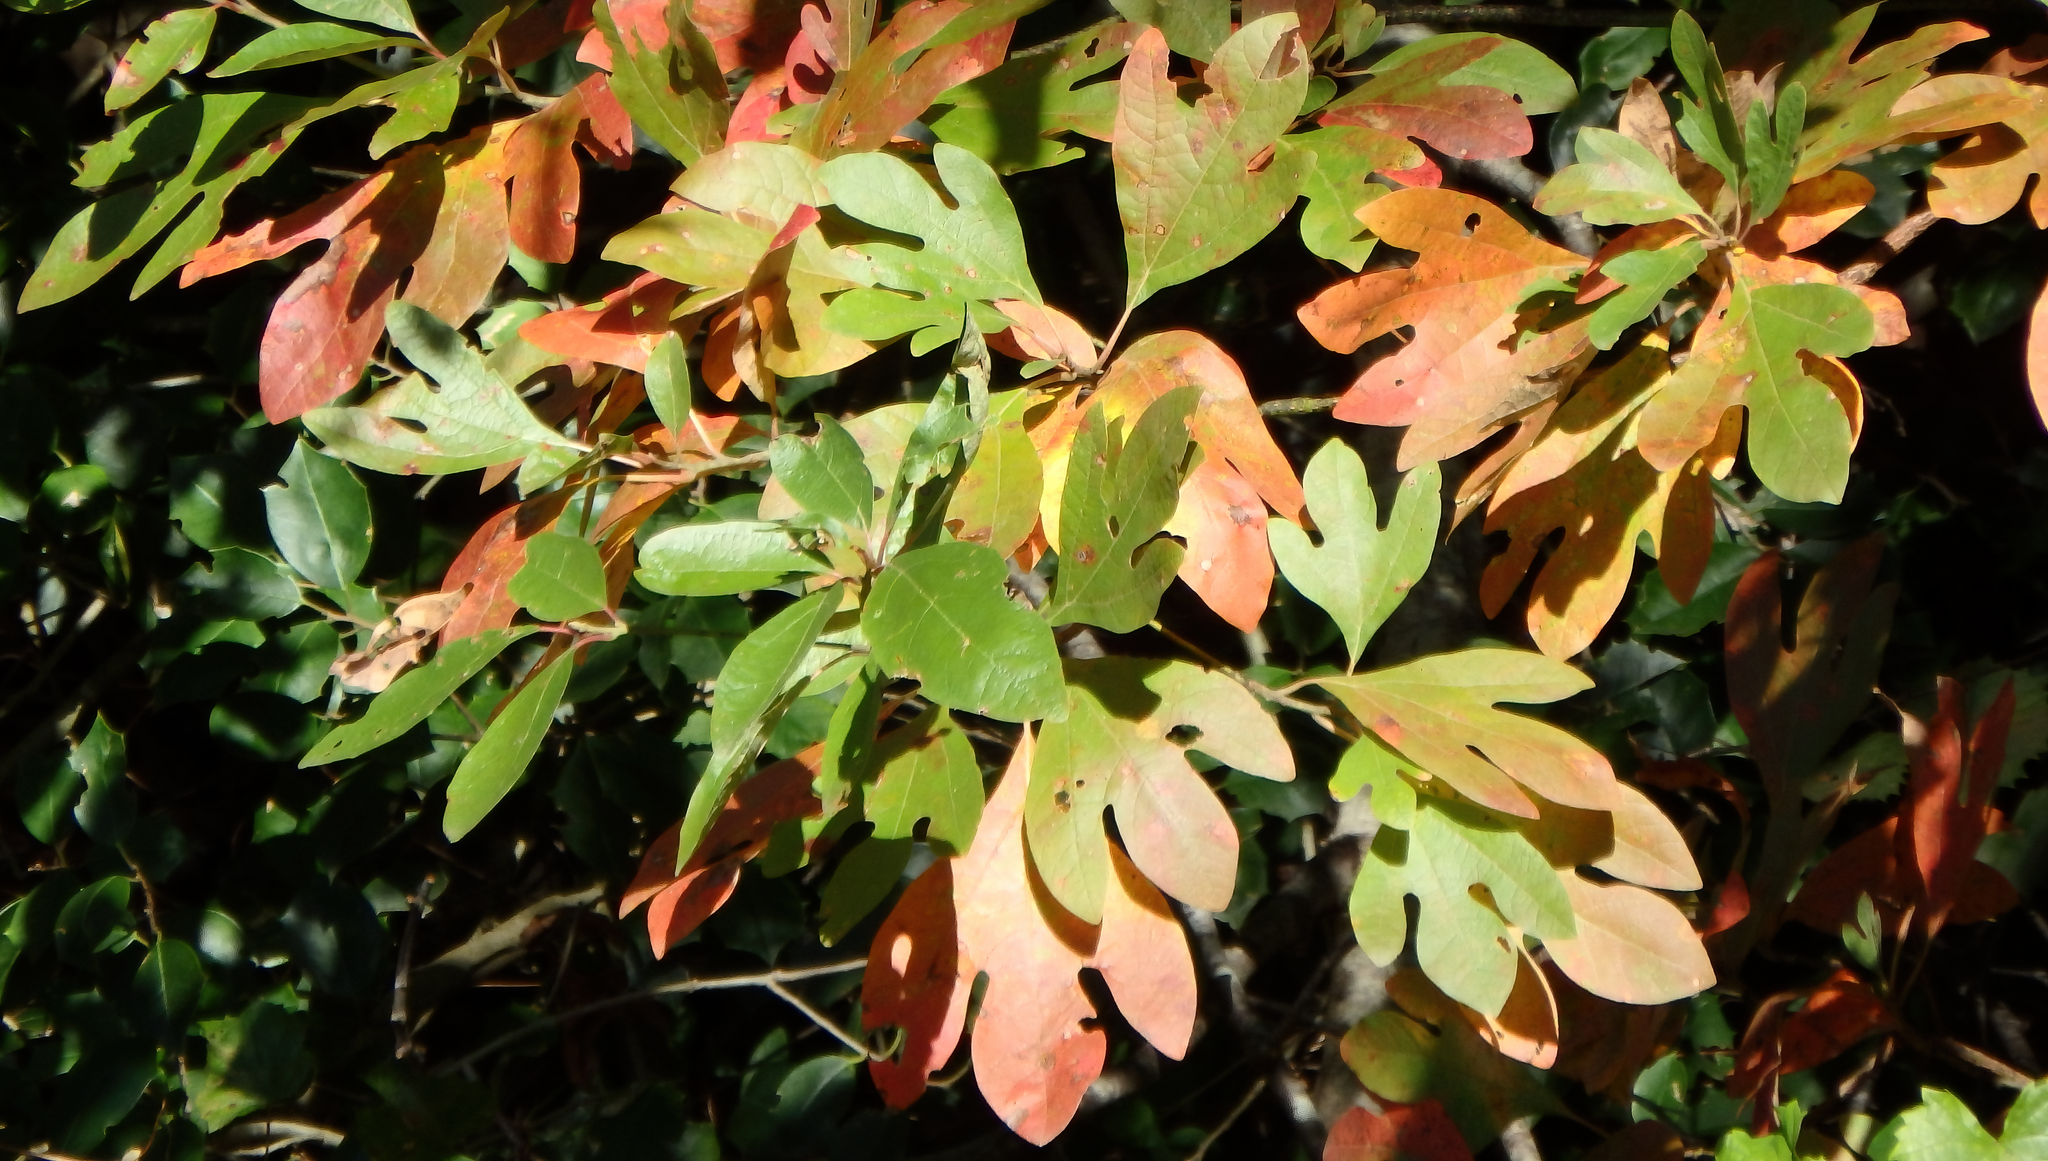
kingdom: Plantae
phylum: Tracheophyta
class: Magnoliopsida
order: Laurales
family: Lauraceae
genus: Sassafras
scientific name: Sassafras albidum
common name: Sassafras
